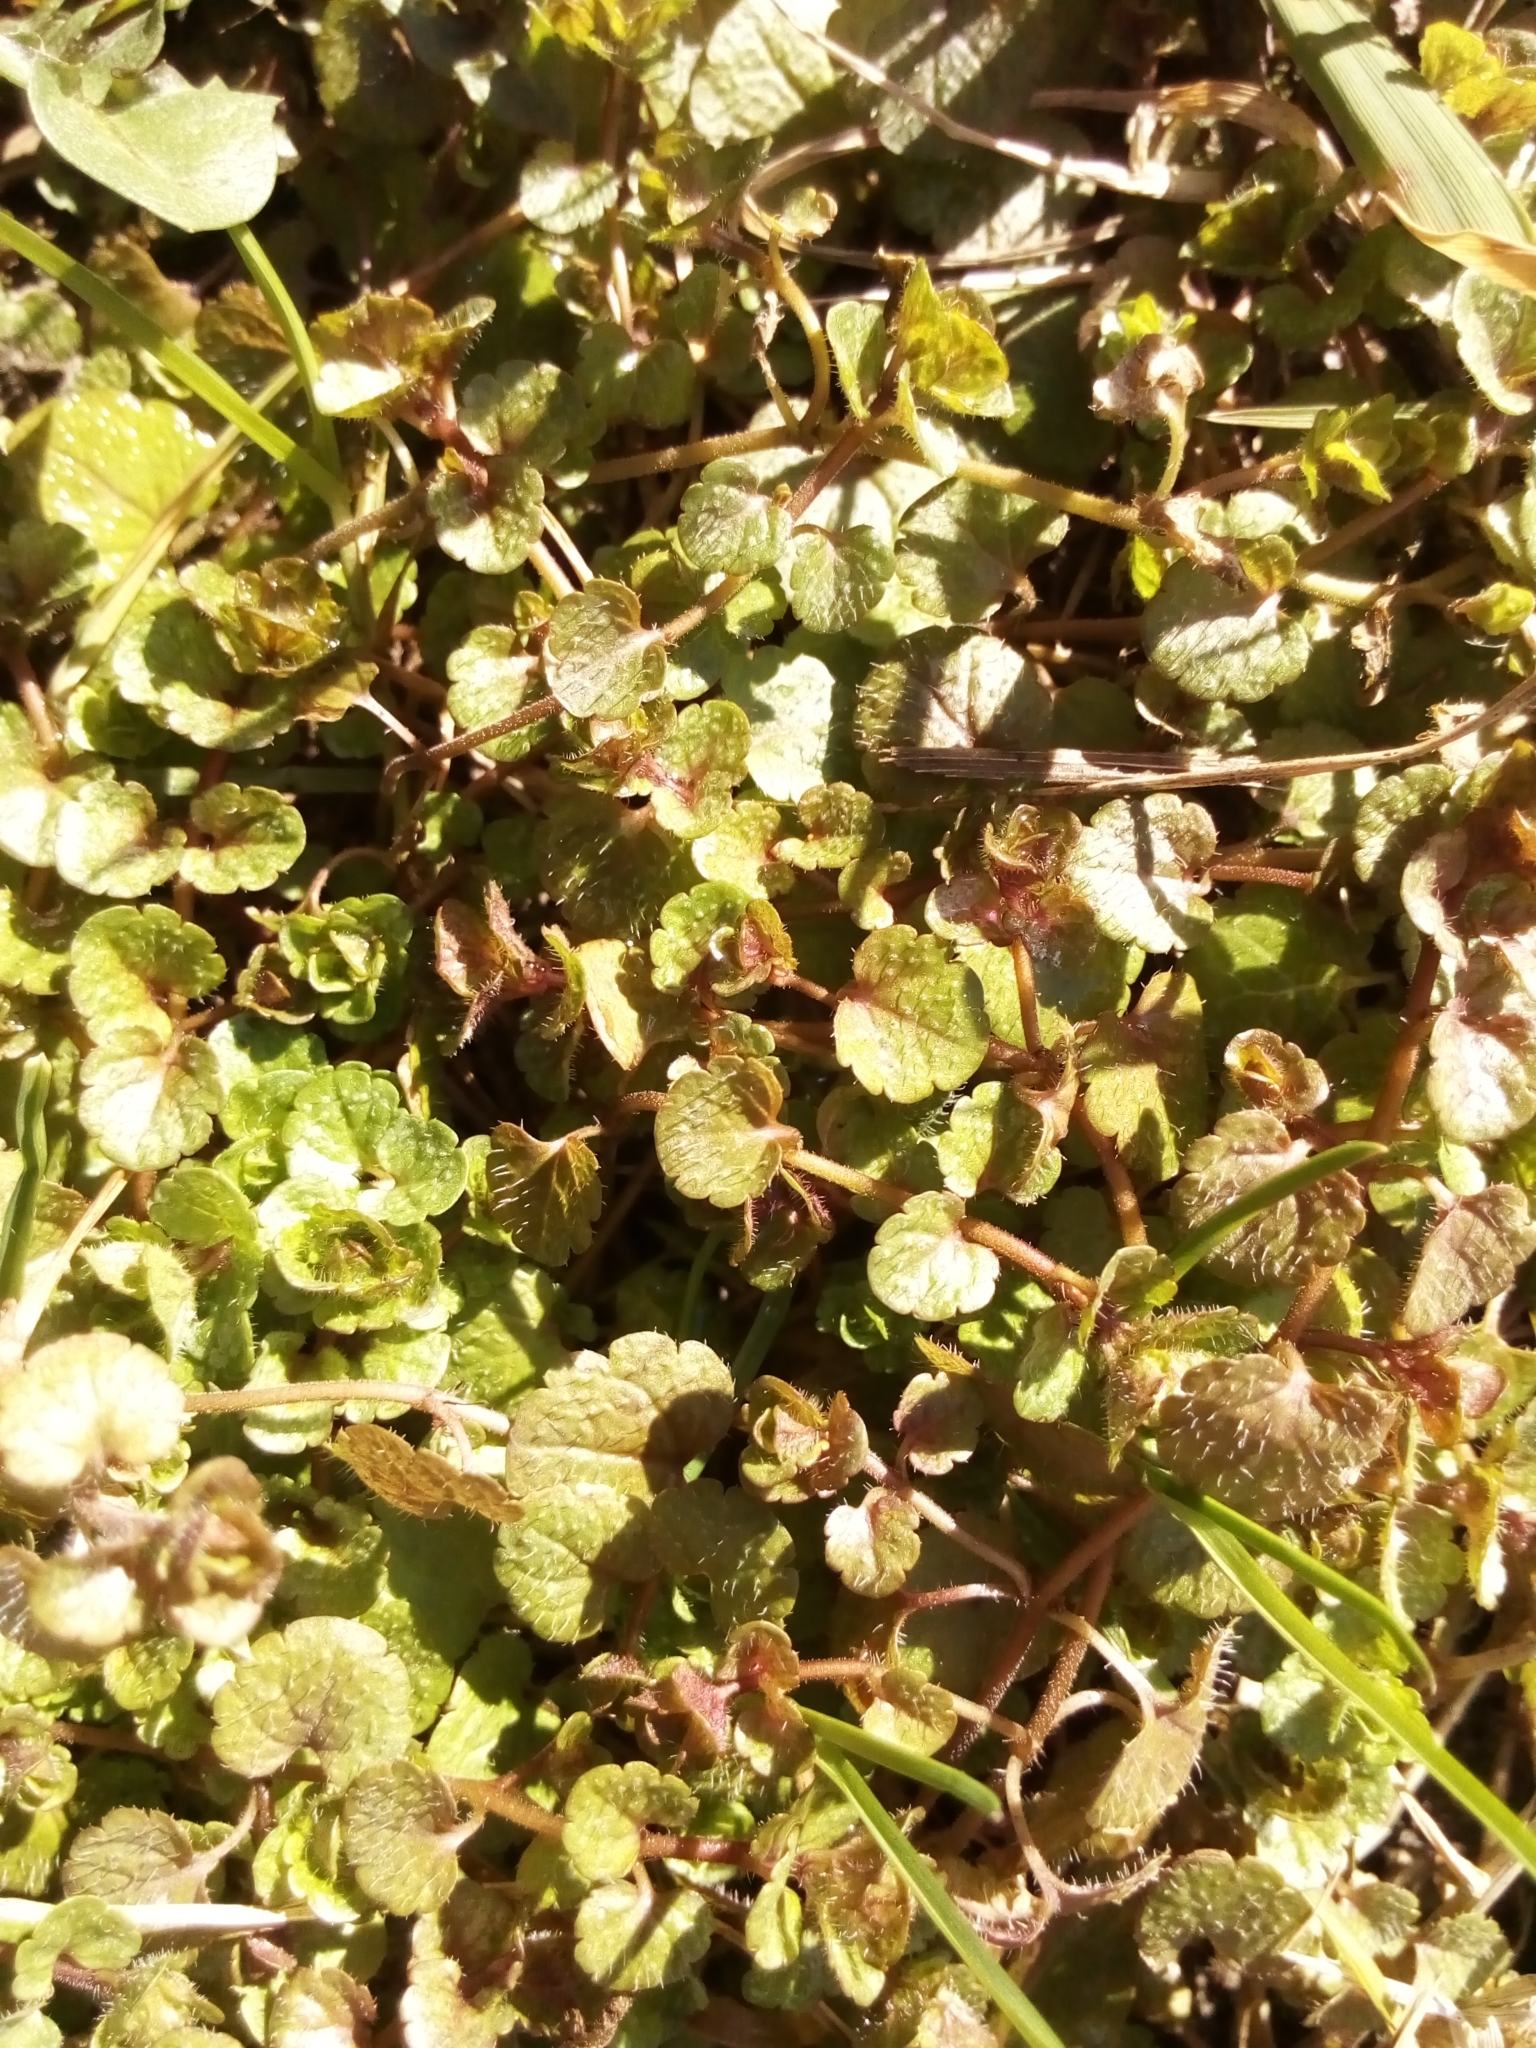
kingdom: Plantae
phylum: Tracheophyta
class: Magnoliopsida
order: Lamiales
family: Plantaginaceae
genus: Veronica
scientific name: Veronica filiformis
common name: Slender speedwell
